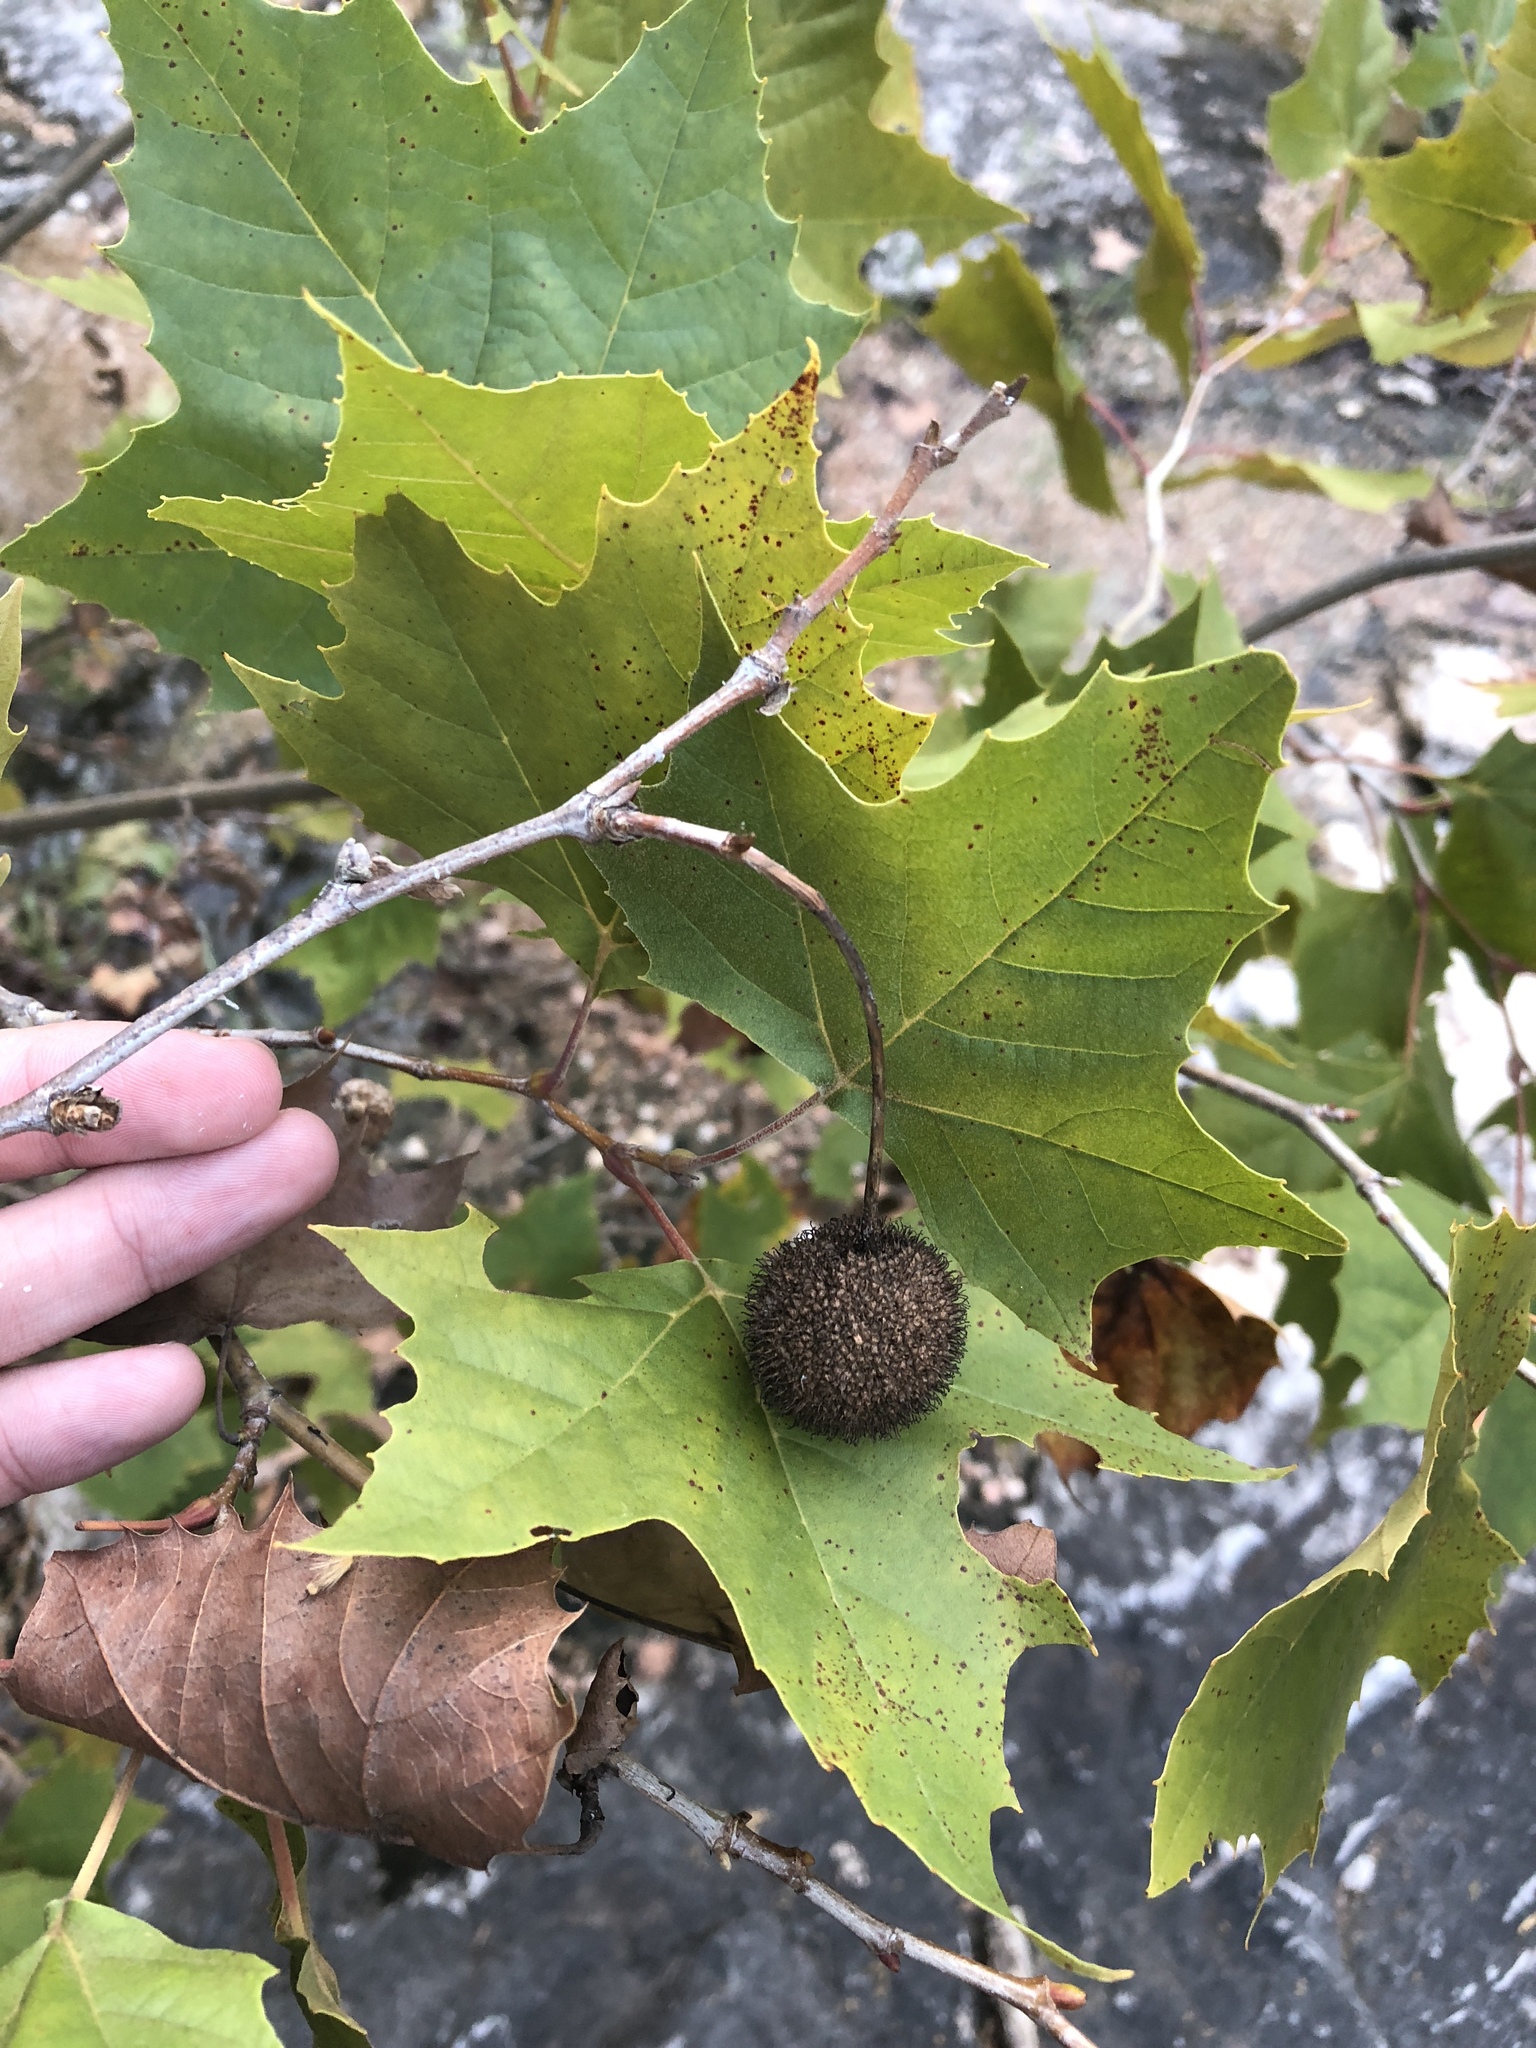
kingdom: Plantae
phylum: Tracheophyta
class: Magnoliopsida
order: Proteales
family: Platanaceae
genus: Platanus
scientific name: Platanus occidentalis
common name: American sycamore
